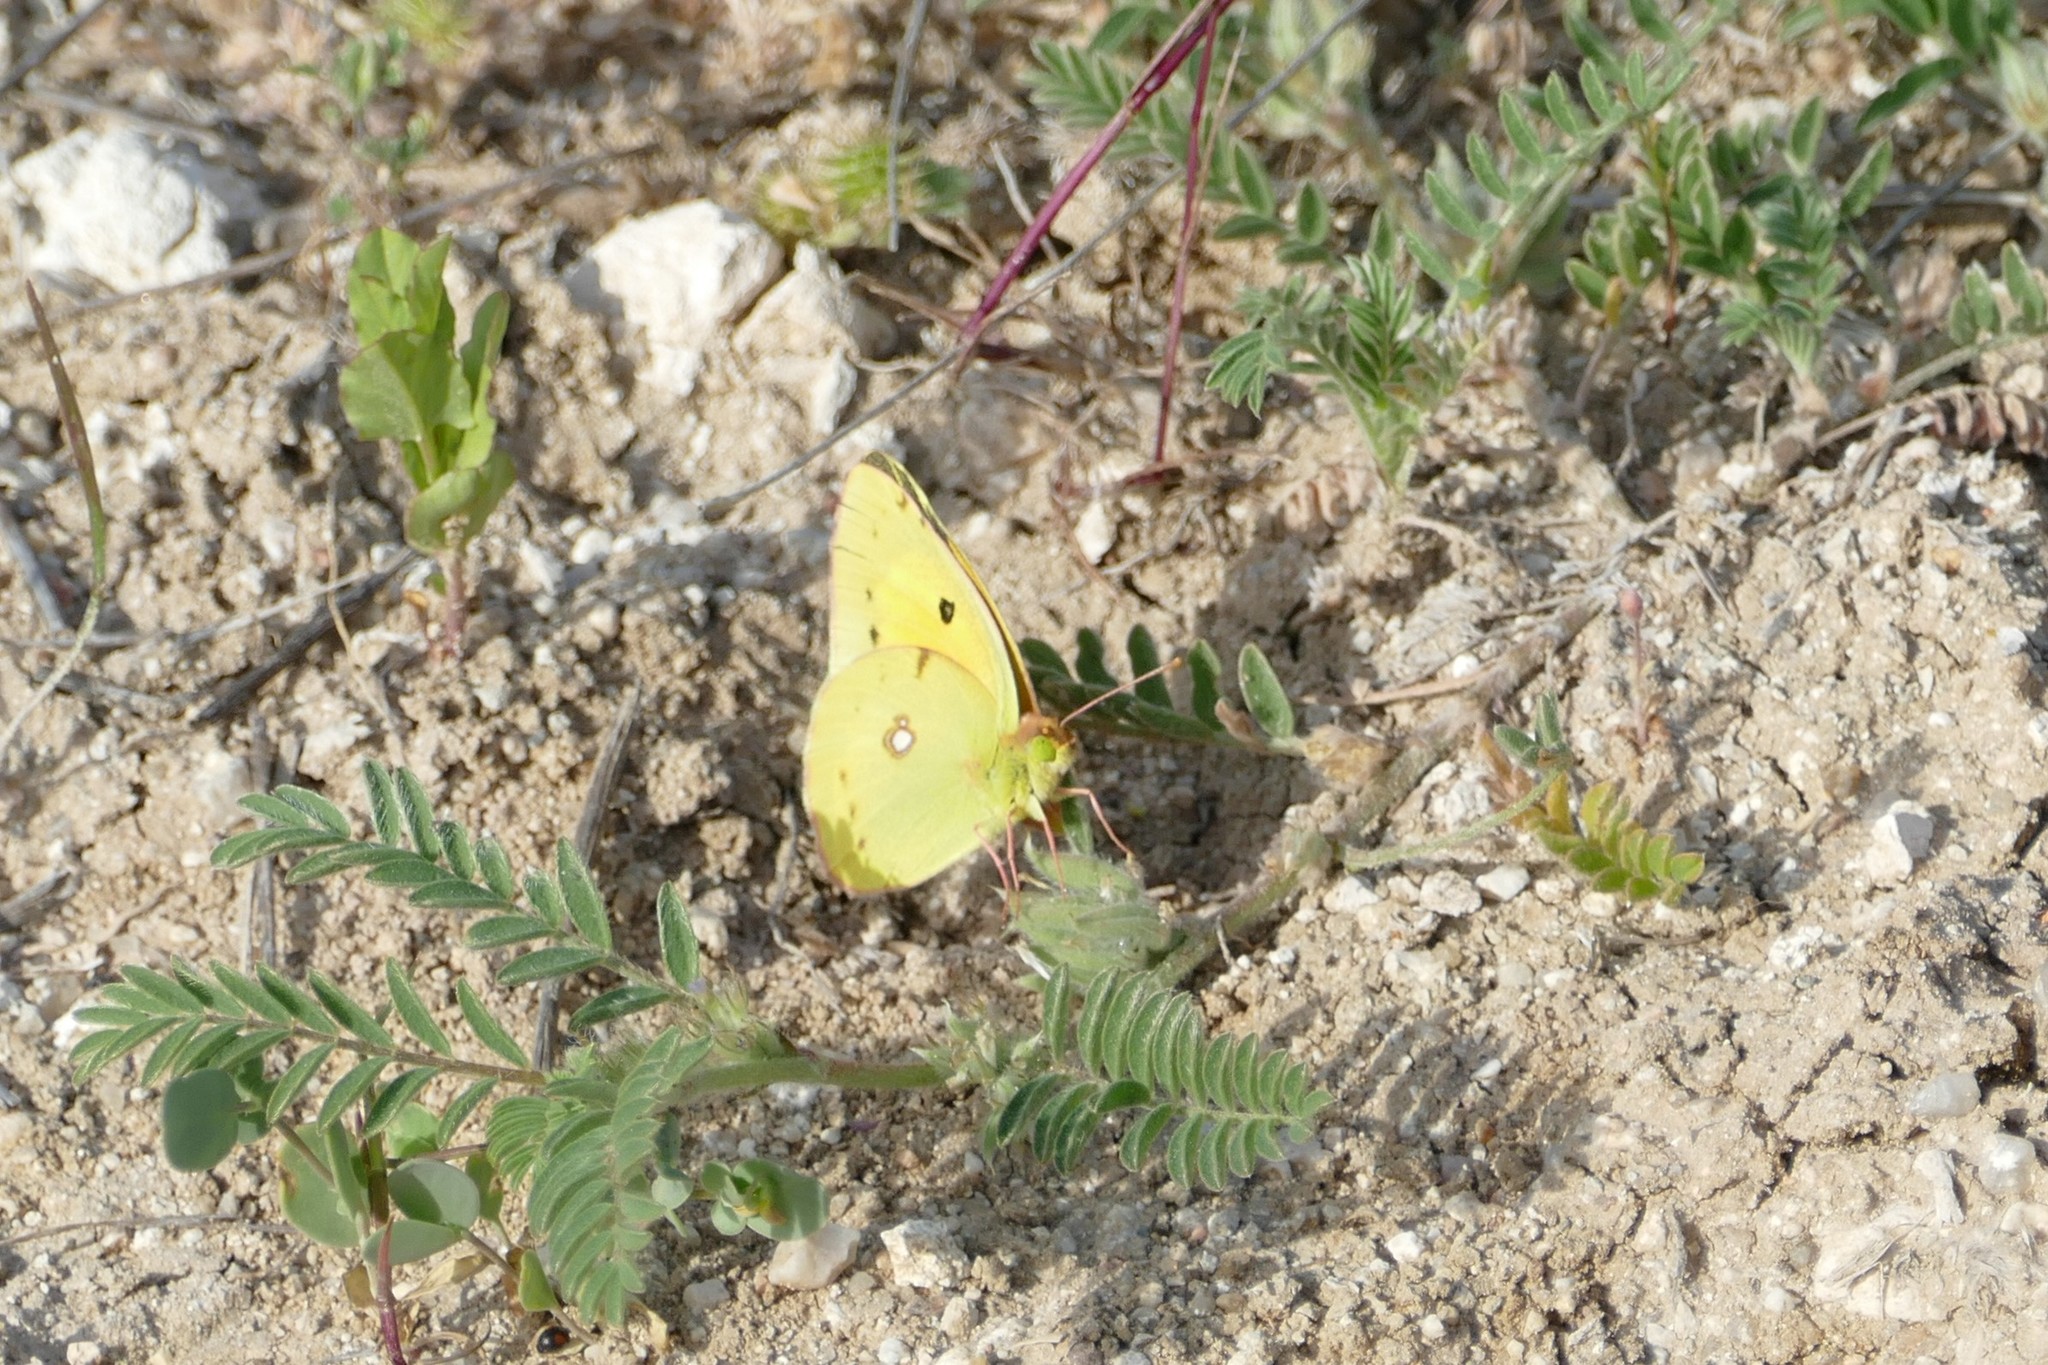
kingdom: Animalia
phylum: Arthropoda
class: Insecta
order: Lepidoptera
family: Pieridae
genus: Colias
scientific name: Colias croceus
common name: Clouded yellow
